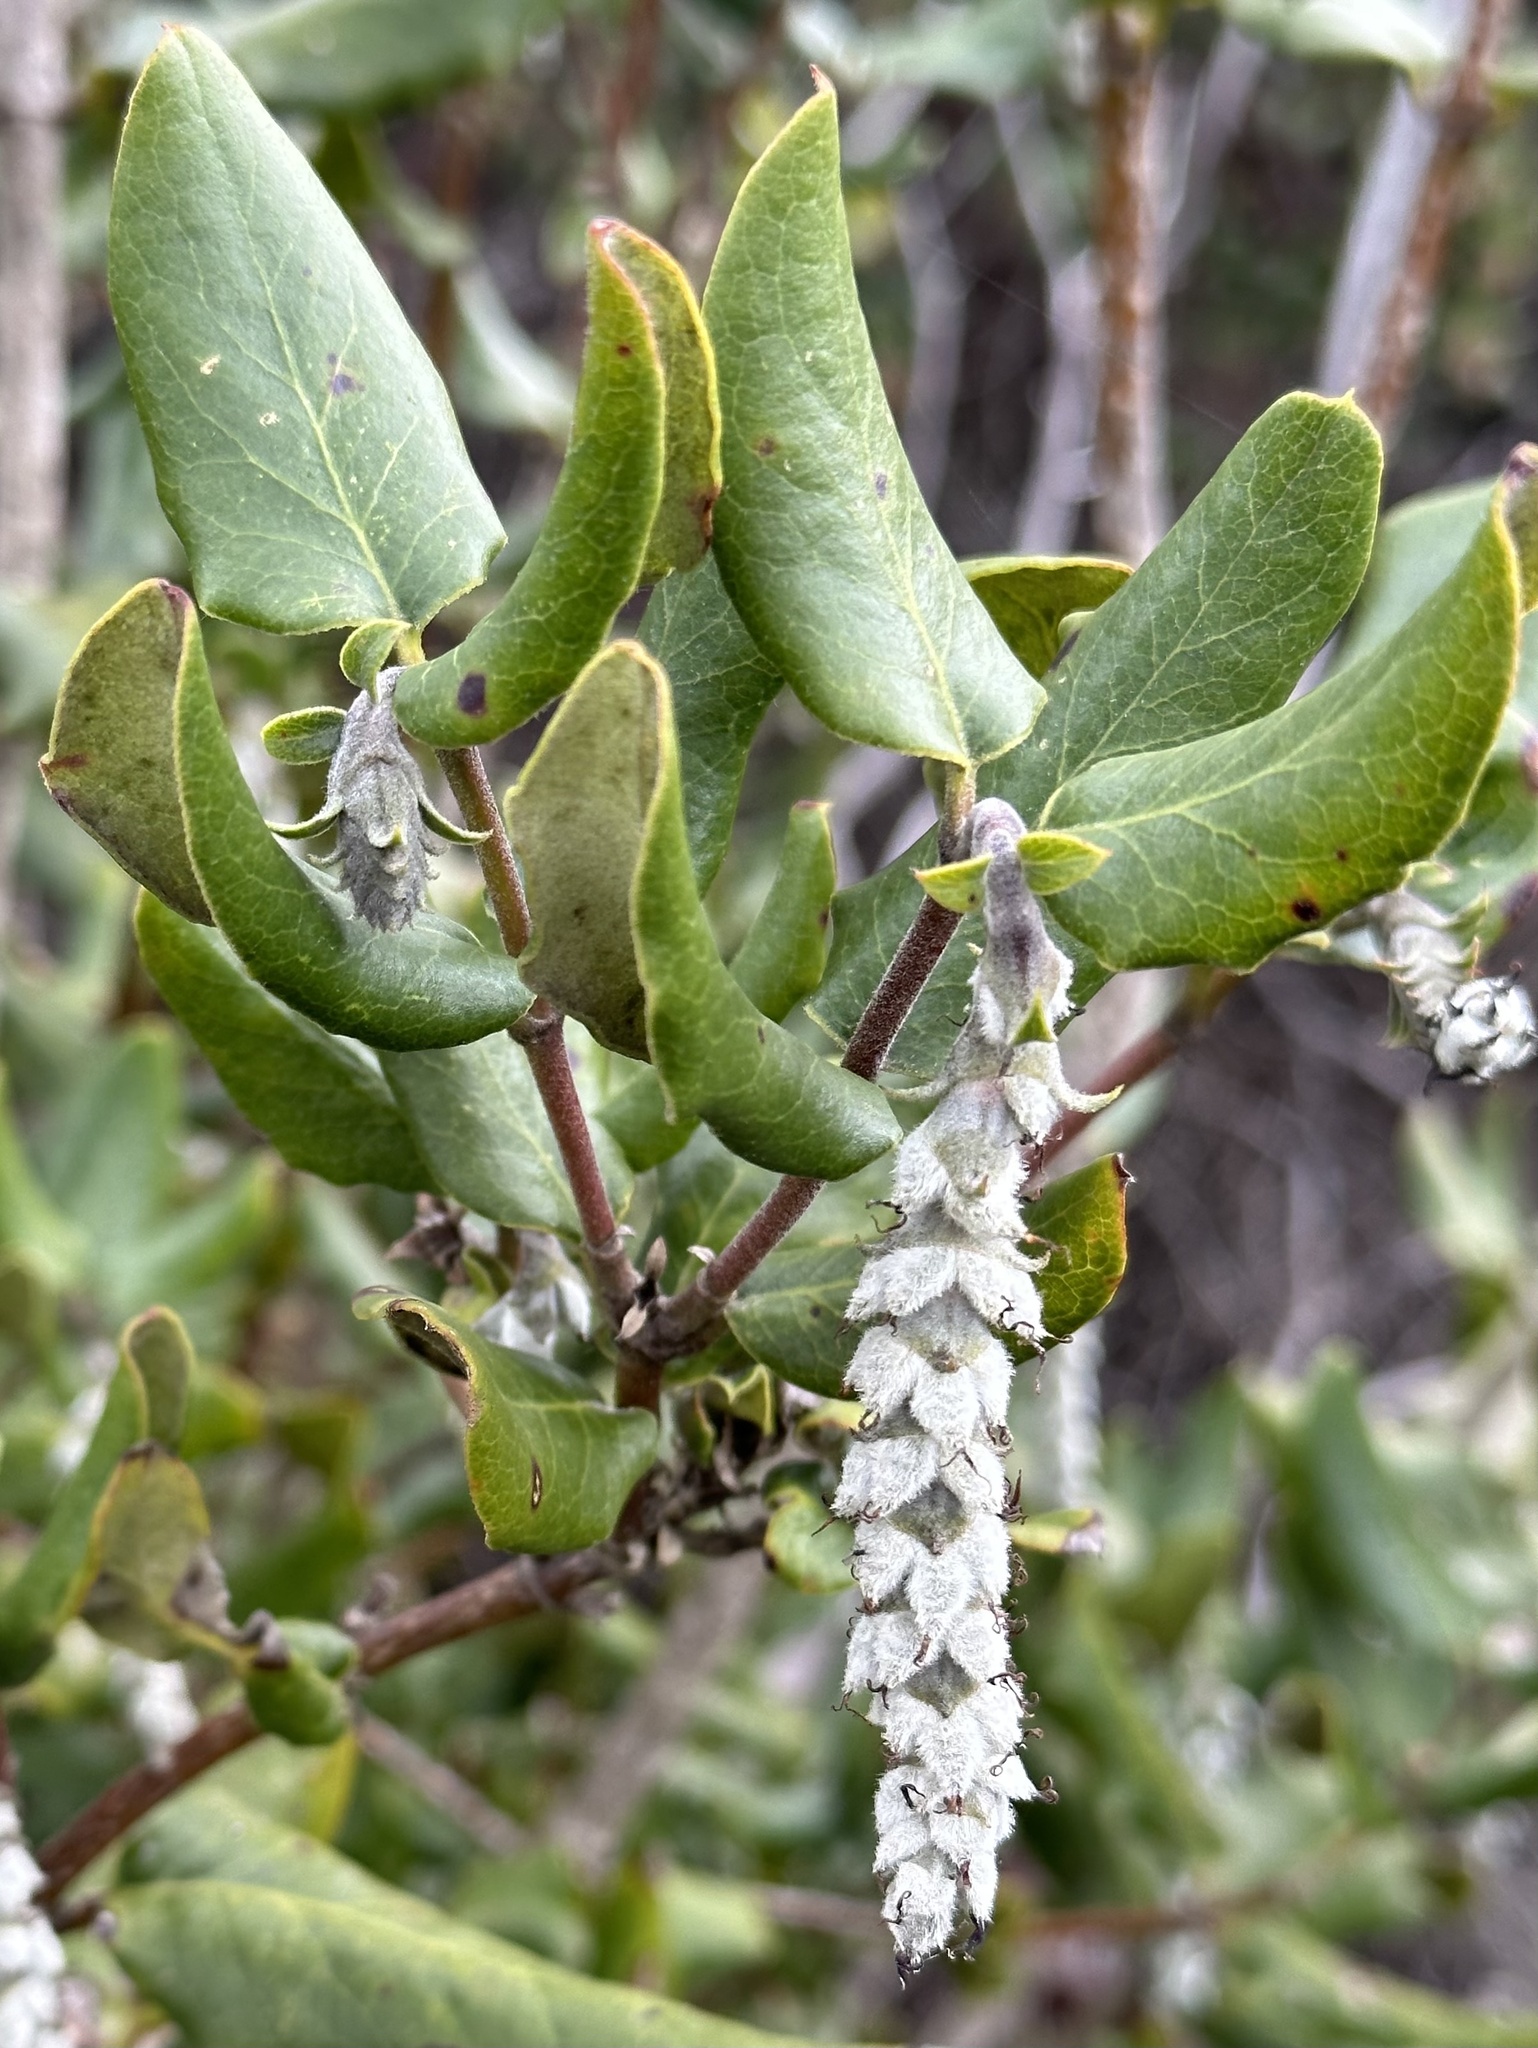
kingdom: Plantae
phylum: Tracheophyta
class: Magnoliopsida
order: Garryales
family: Garryaceae
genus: Garrya
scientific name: Garrya elliptica
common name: Silk-tassel
